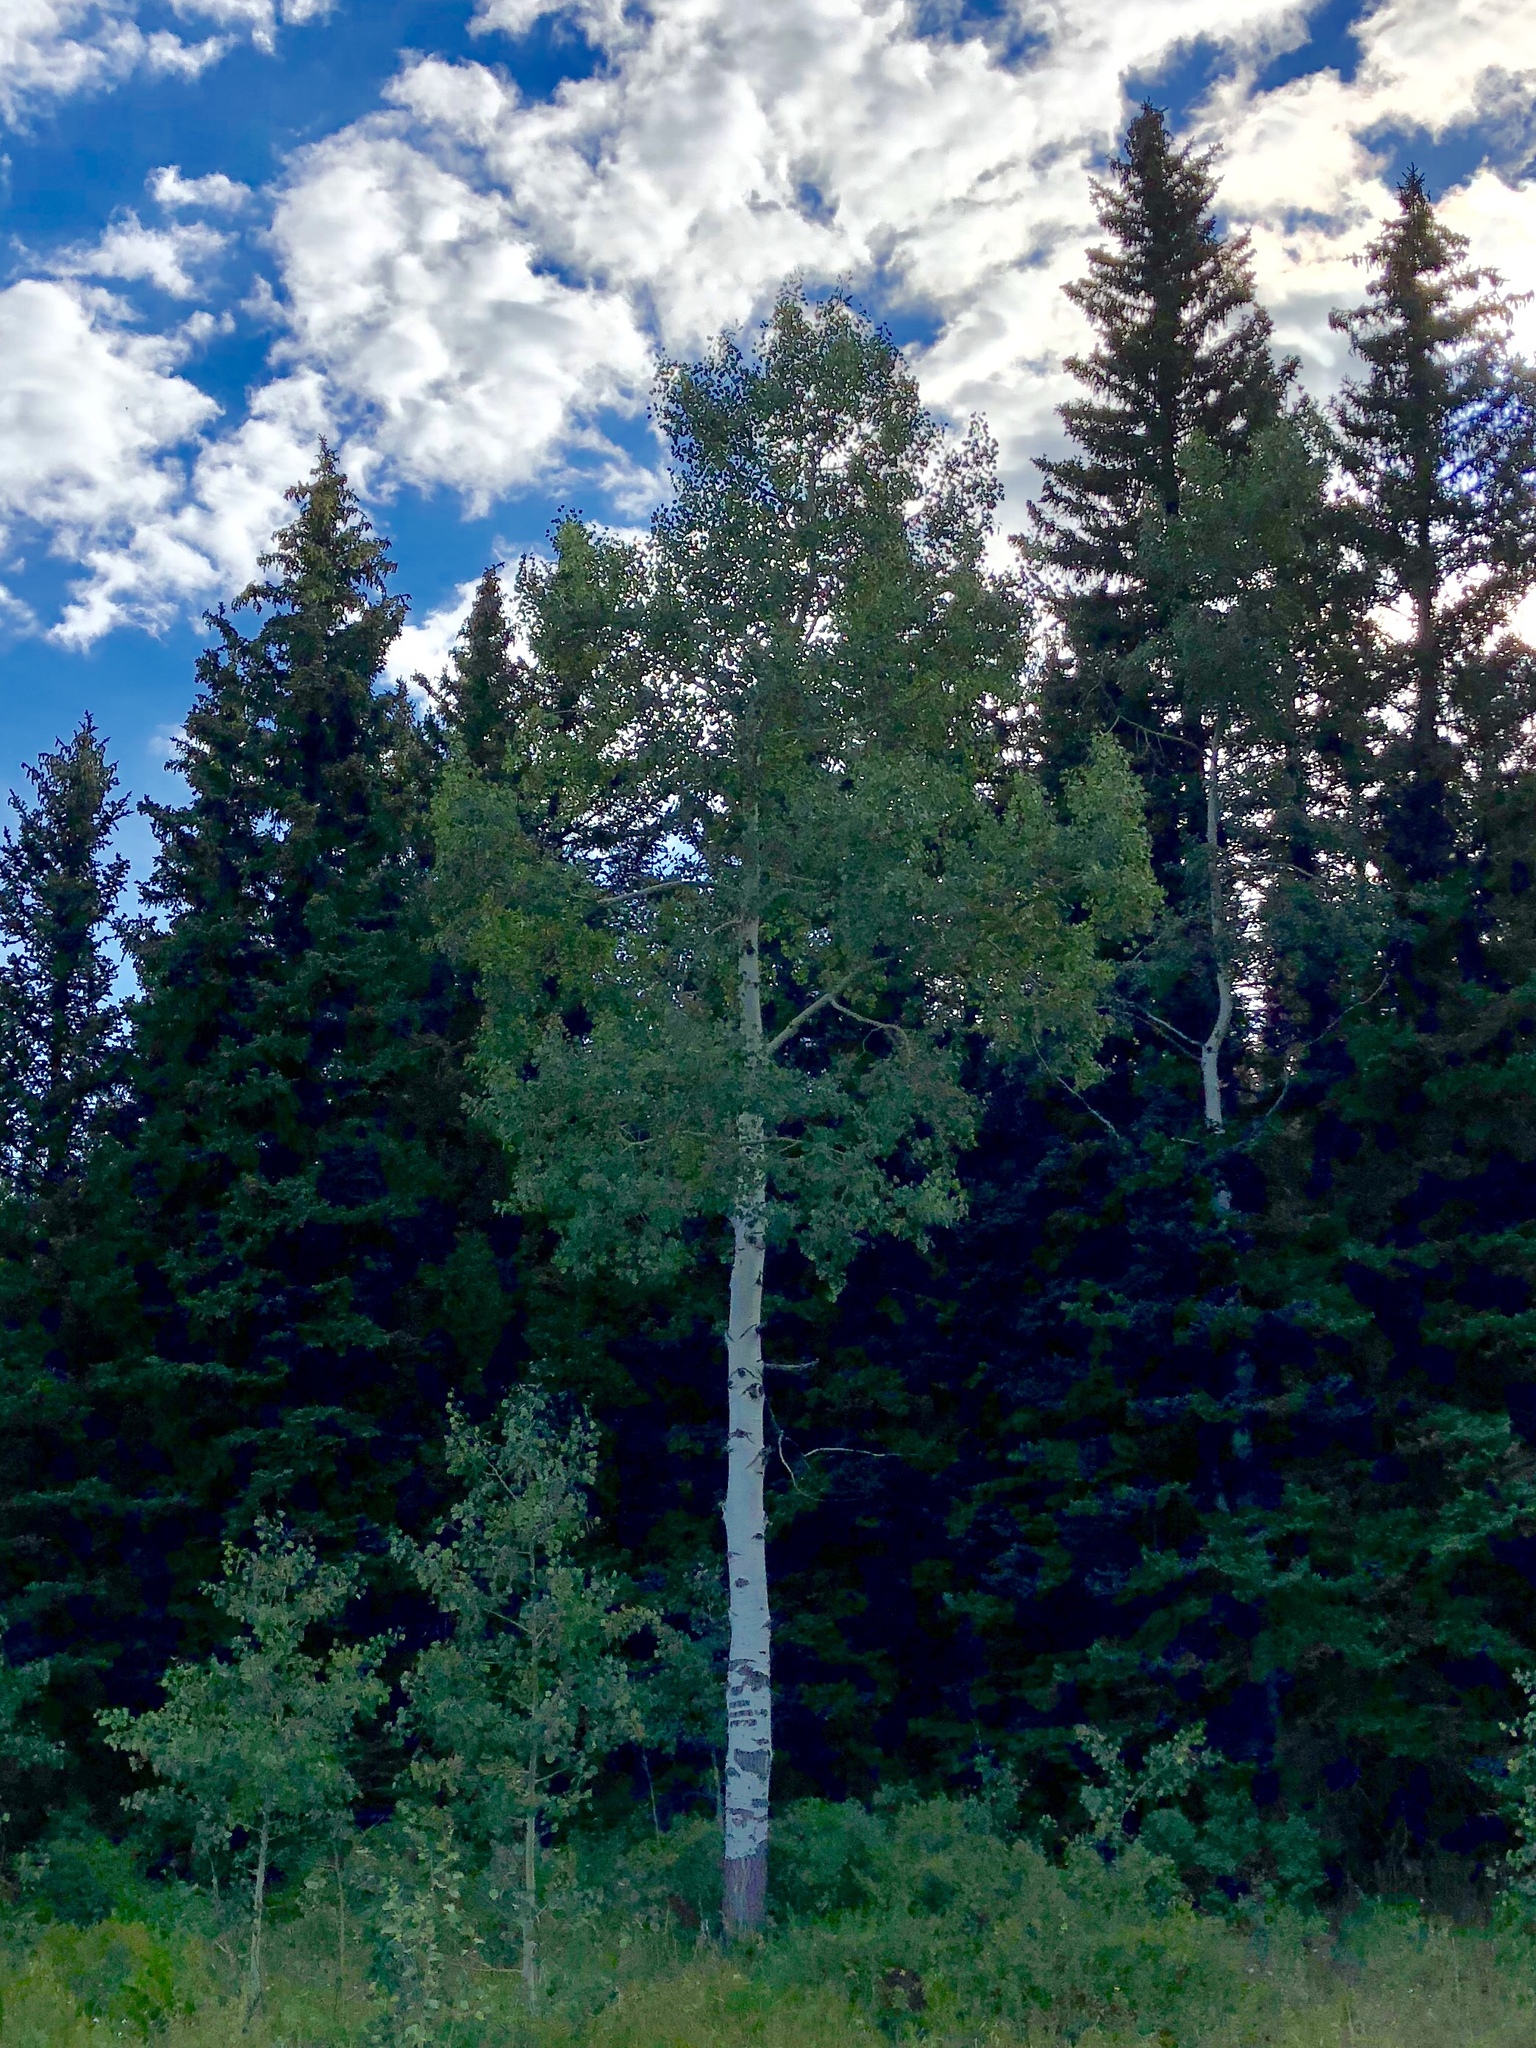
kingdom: Plantae
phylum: Tracheophyta
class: Magnoliopsida
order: Malpighiales
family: Salicaceae
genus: Populus
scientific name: Populus tremuloides
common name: Quaking aspen
